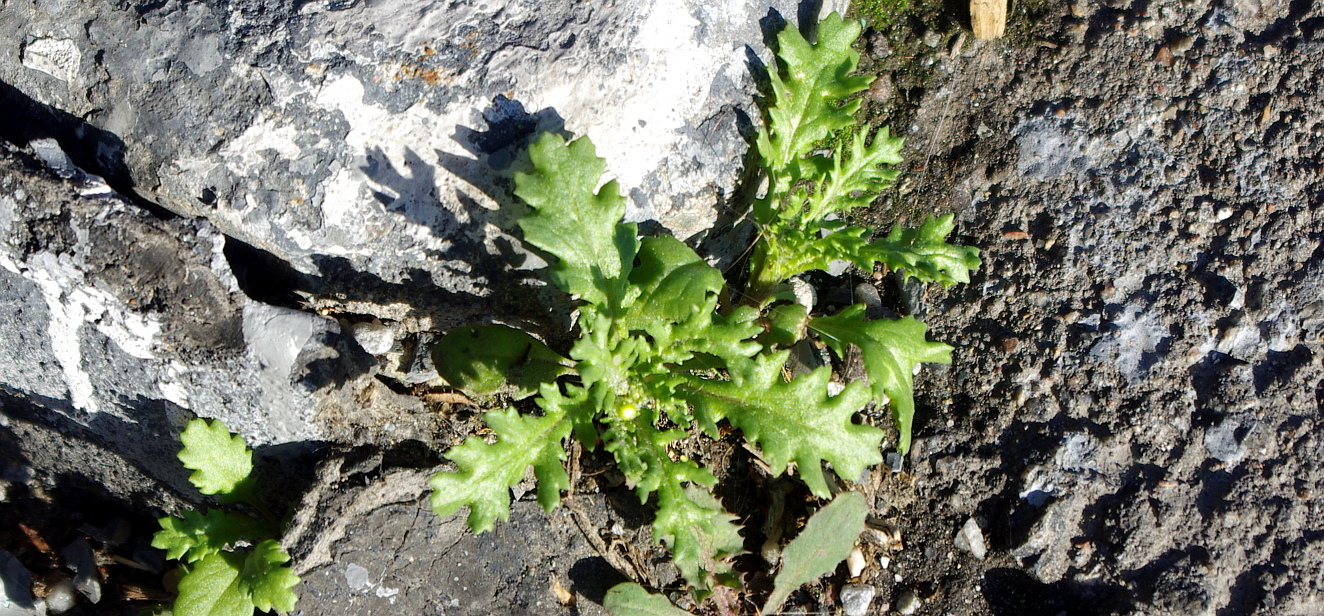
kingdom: Plantae
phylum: Tracheophyta
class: Magnoliopsida
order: Asterales
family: Asteraceae
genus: Senecio
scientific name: Senecio vulgaris
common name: Old-man-in-the-spring
